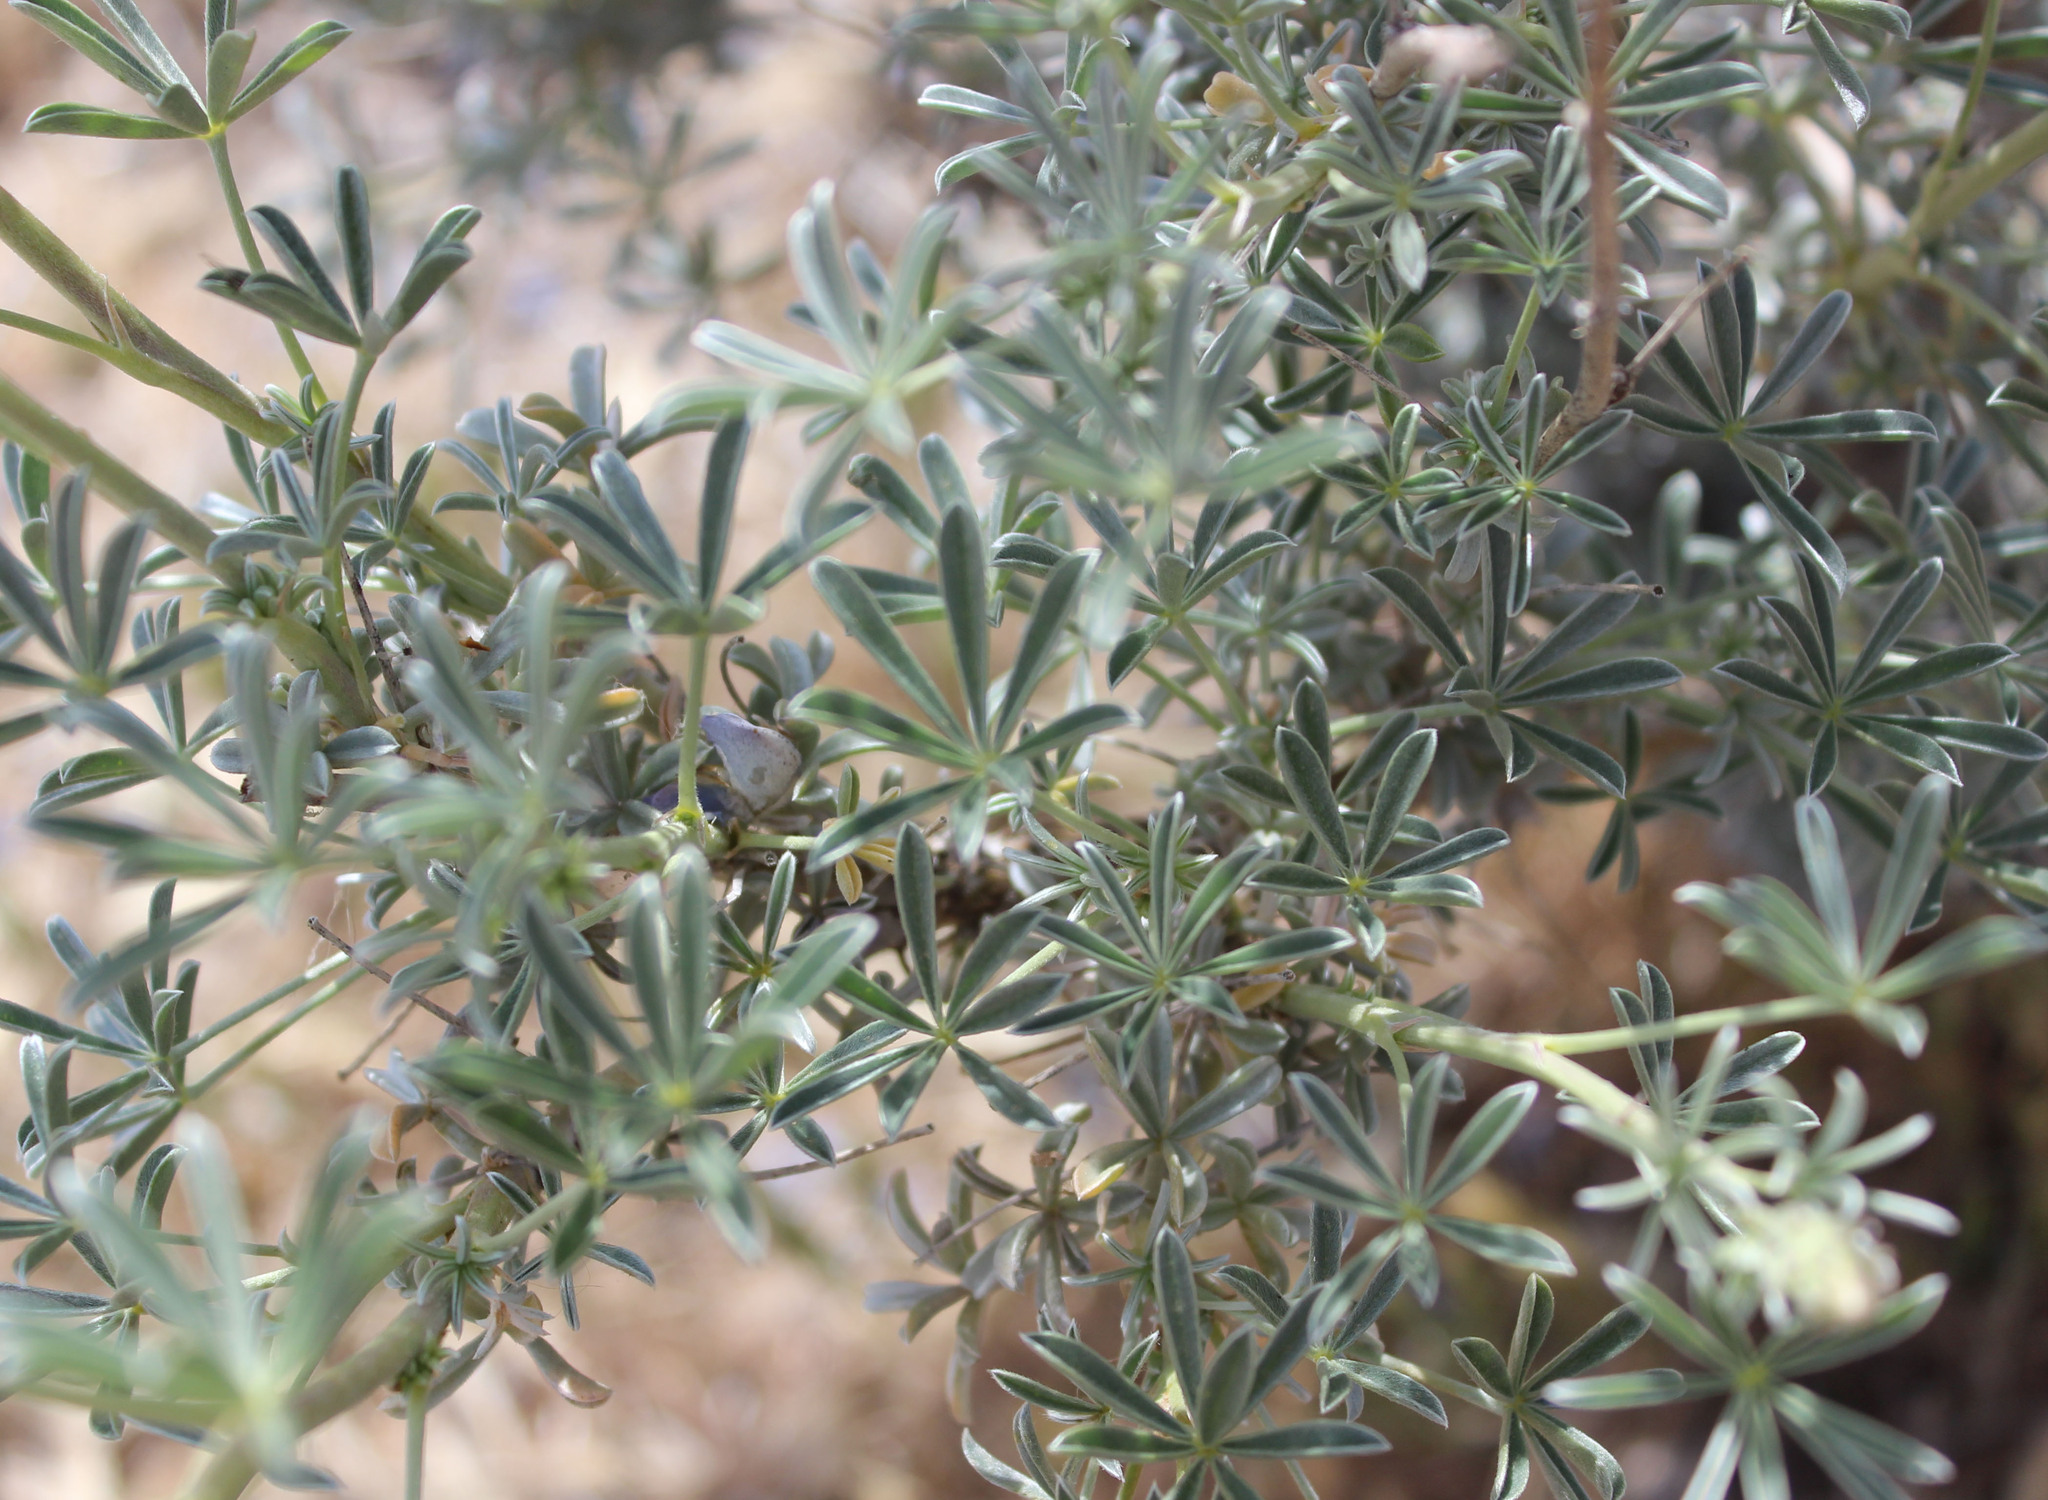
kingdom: Plantae
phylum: Tracheophyta
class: Magnoliopsida
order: Fabales
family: Fabaceae
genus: Lupinus
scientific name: Lupinus albifrons
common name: Foothill lupine
